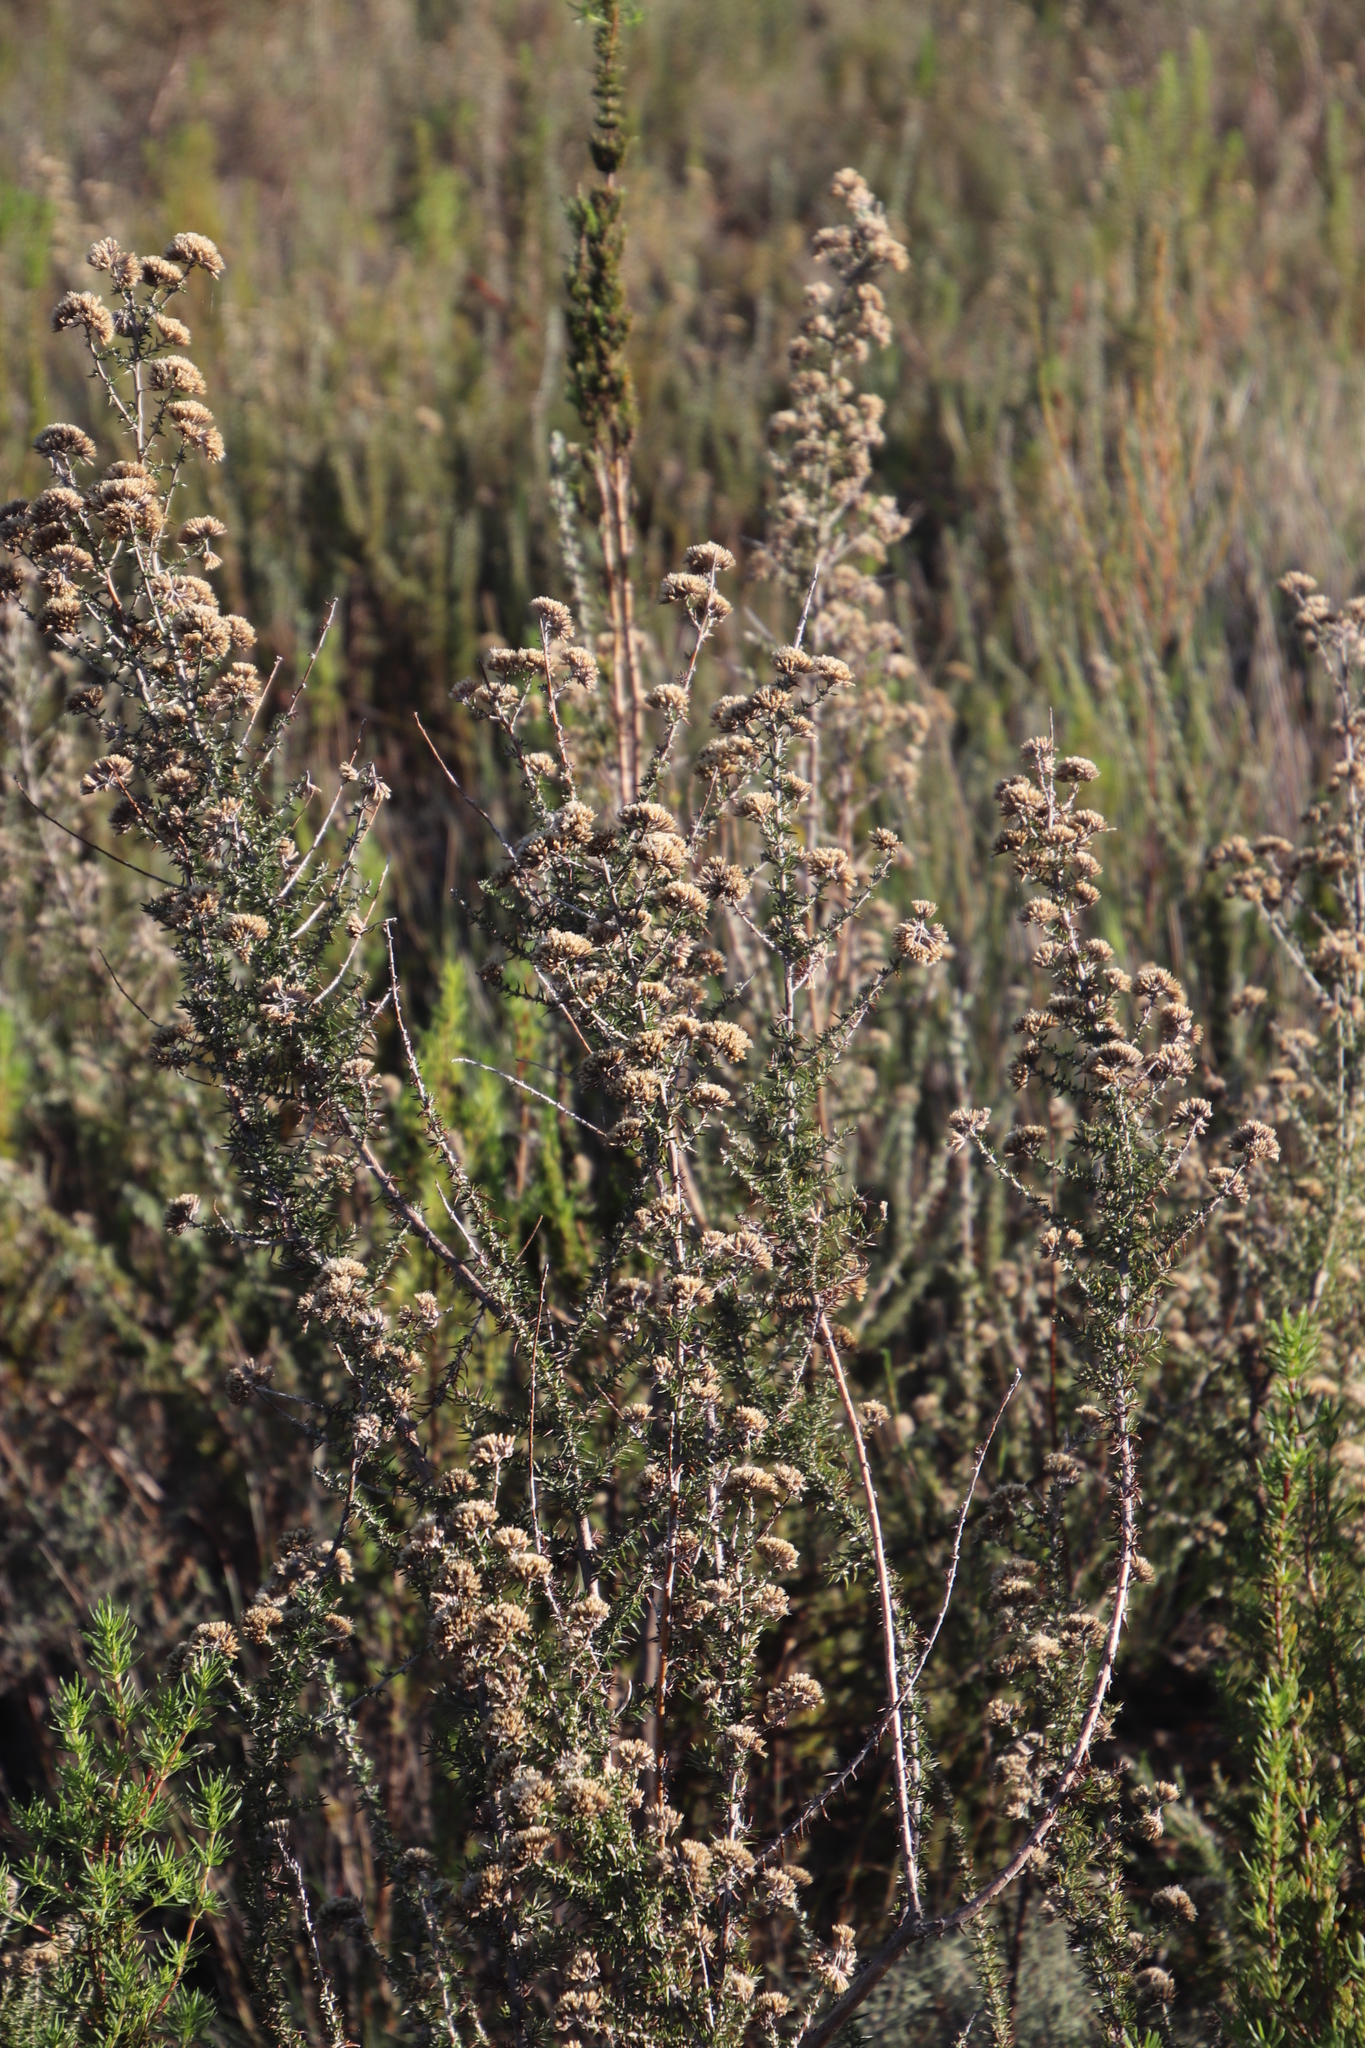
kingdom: Plantae
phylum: Tracheophyta
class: Magnoliopsida
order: Asterales
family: Asteraceae
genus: Metalasia
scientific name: Metalasia densa
